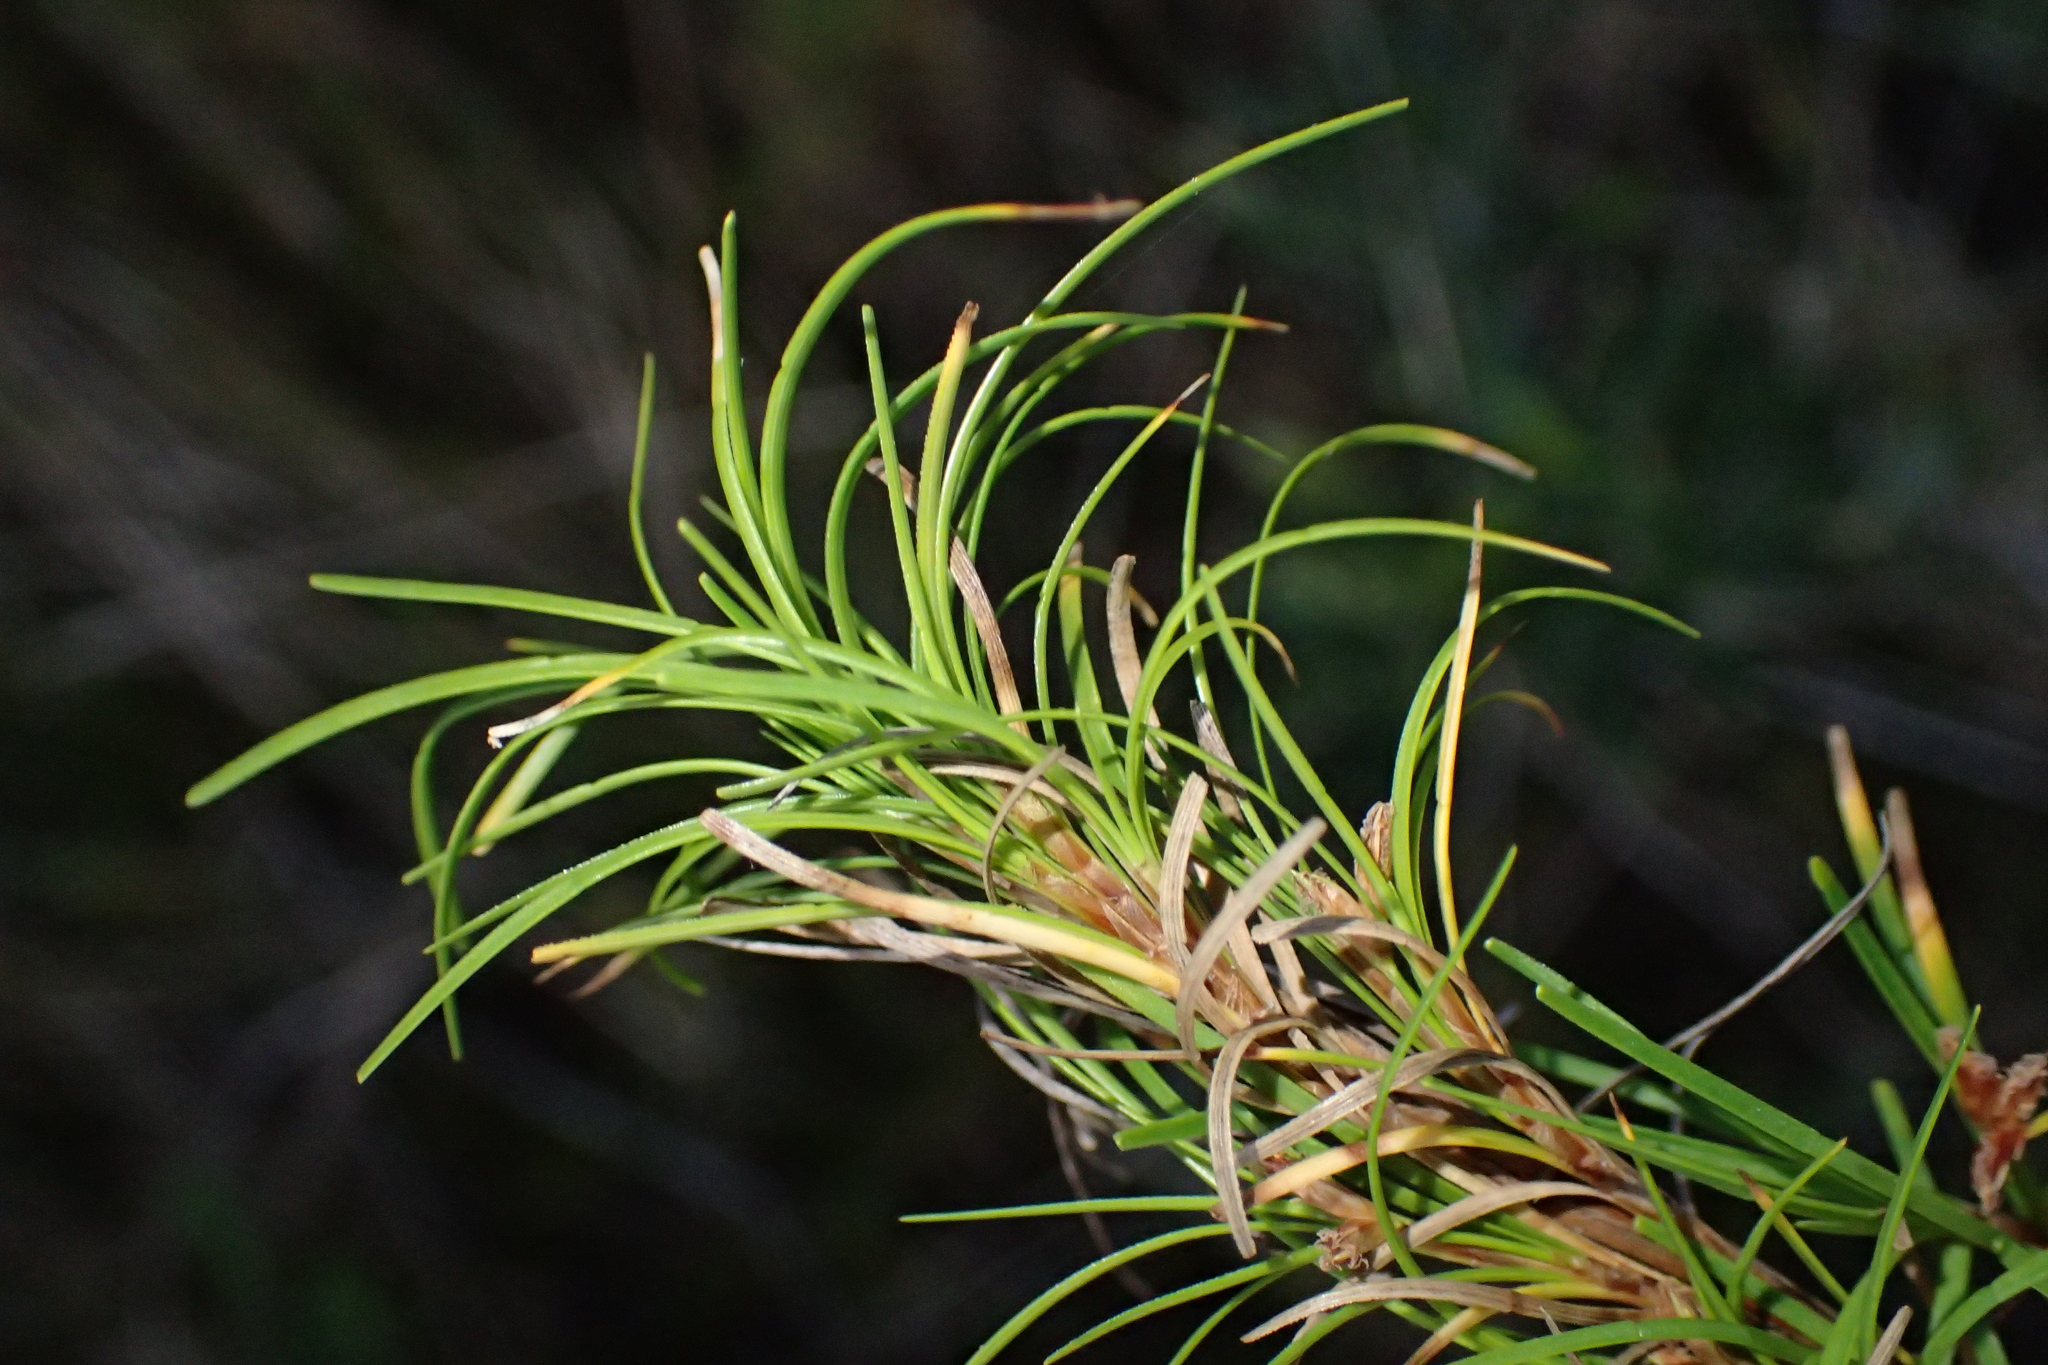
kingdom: Plantae
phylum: Tracheophyta
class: Liliopsida
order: Poales
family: Cyperaceae
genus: Ficinia
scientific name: Ficinia ramosissima
